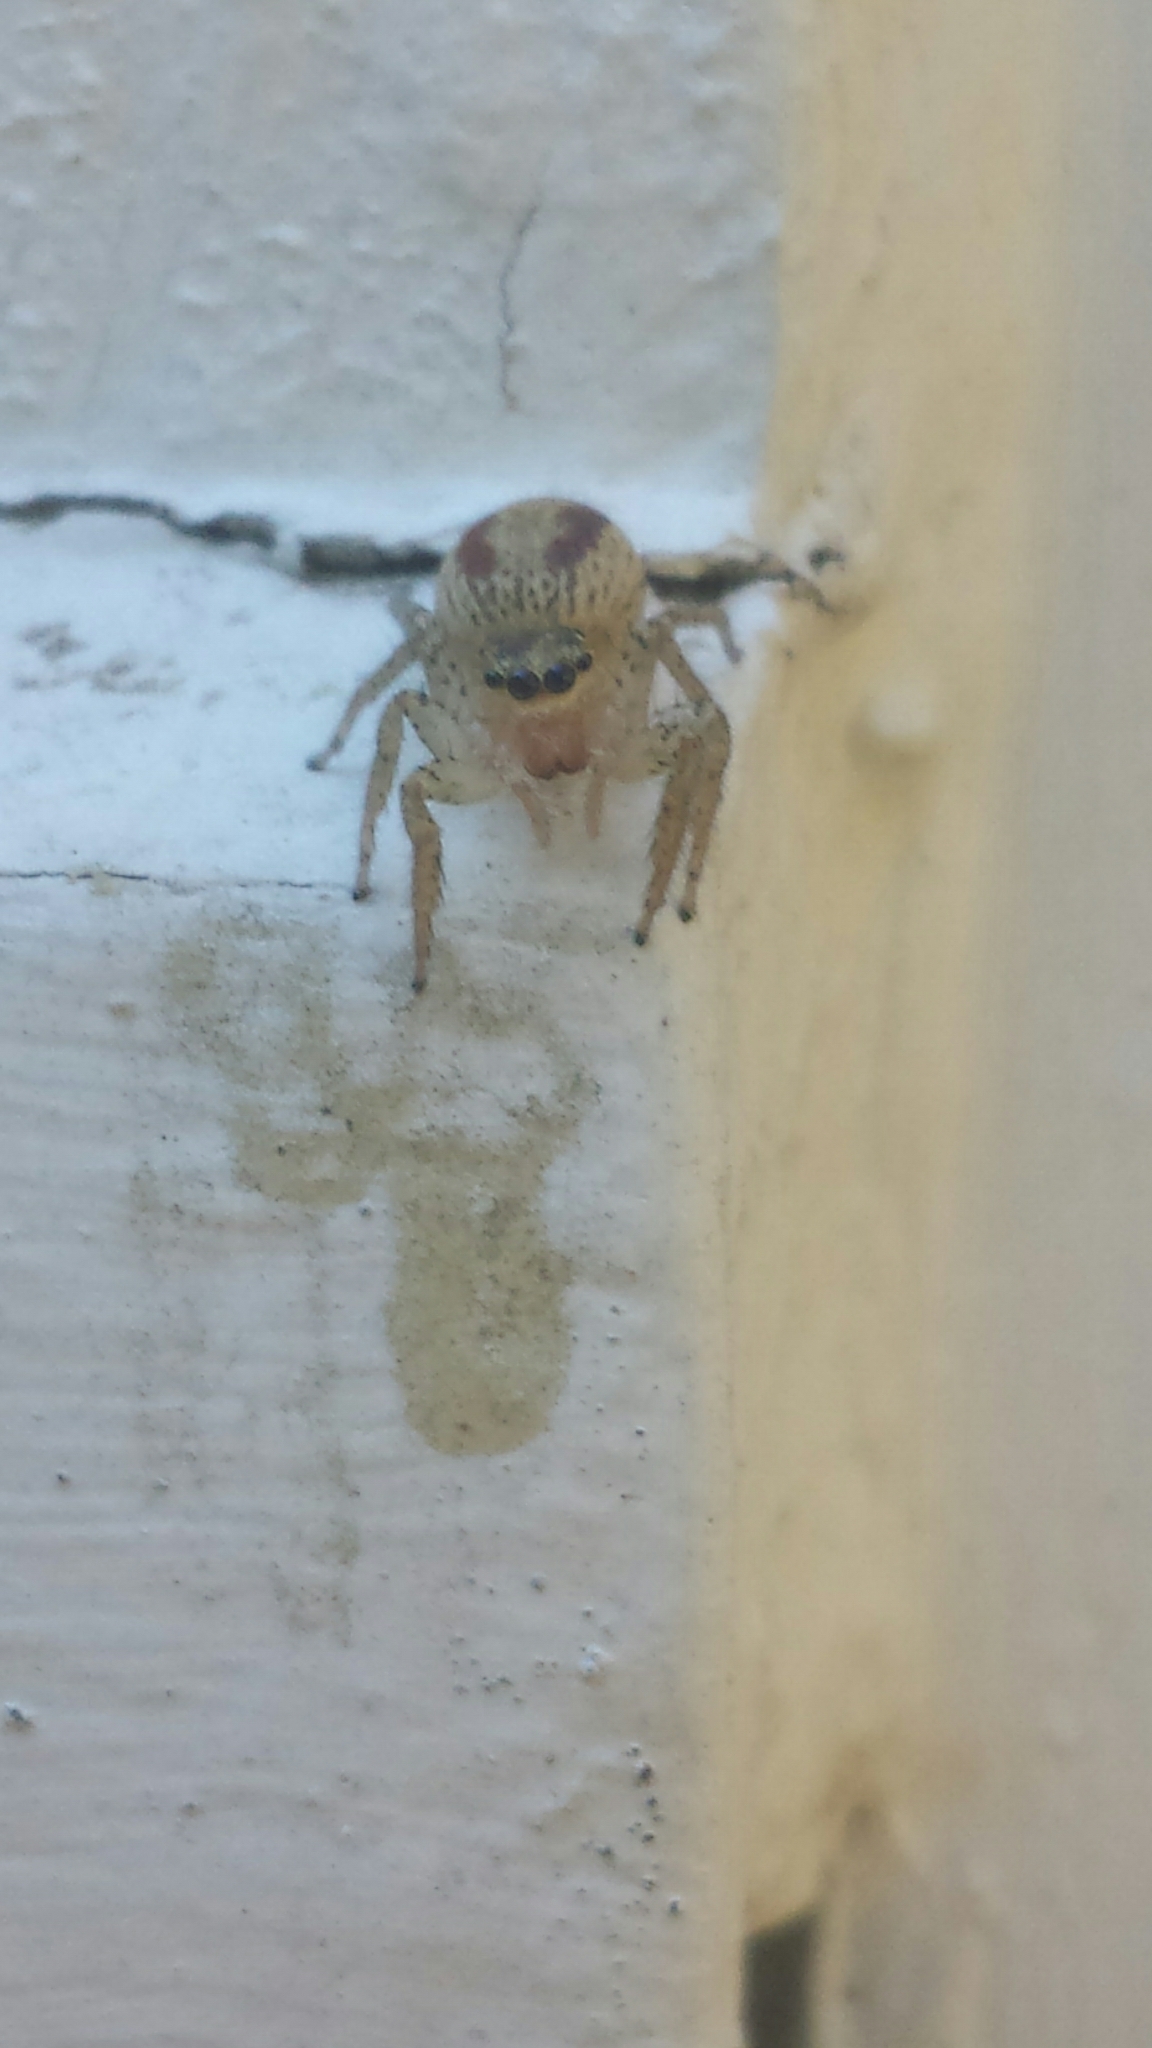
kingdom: Animalia
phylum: Arthropoda
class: Arachnida
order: Araneae
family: Salticidae
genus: Maevia
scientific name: Maevia inclemens
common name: Dimorphic jumper
